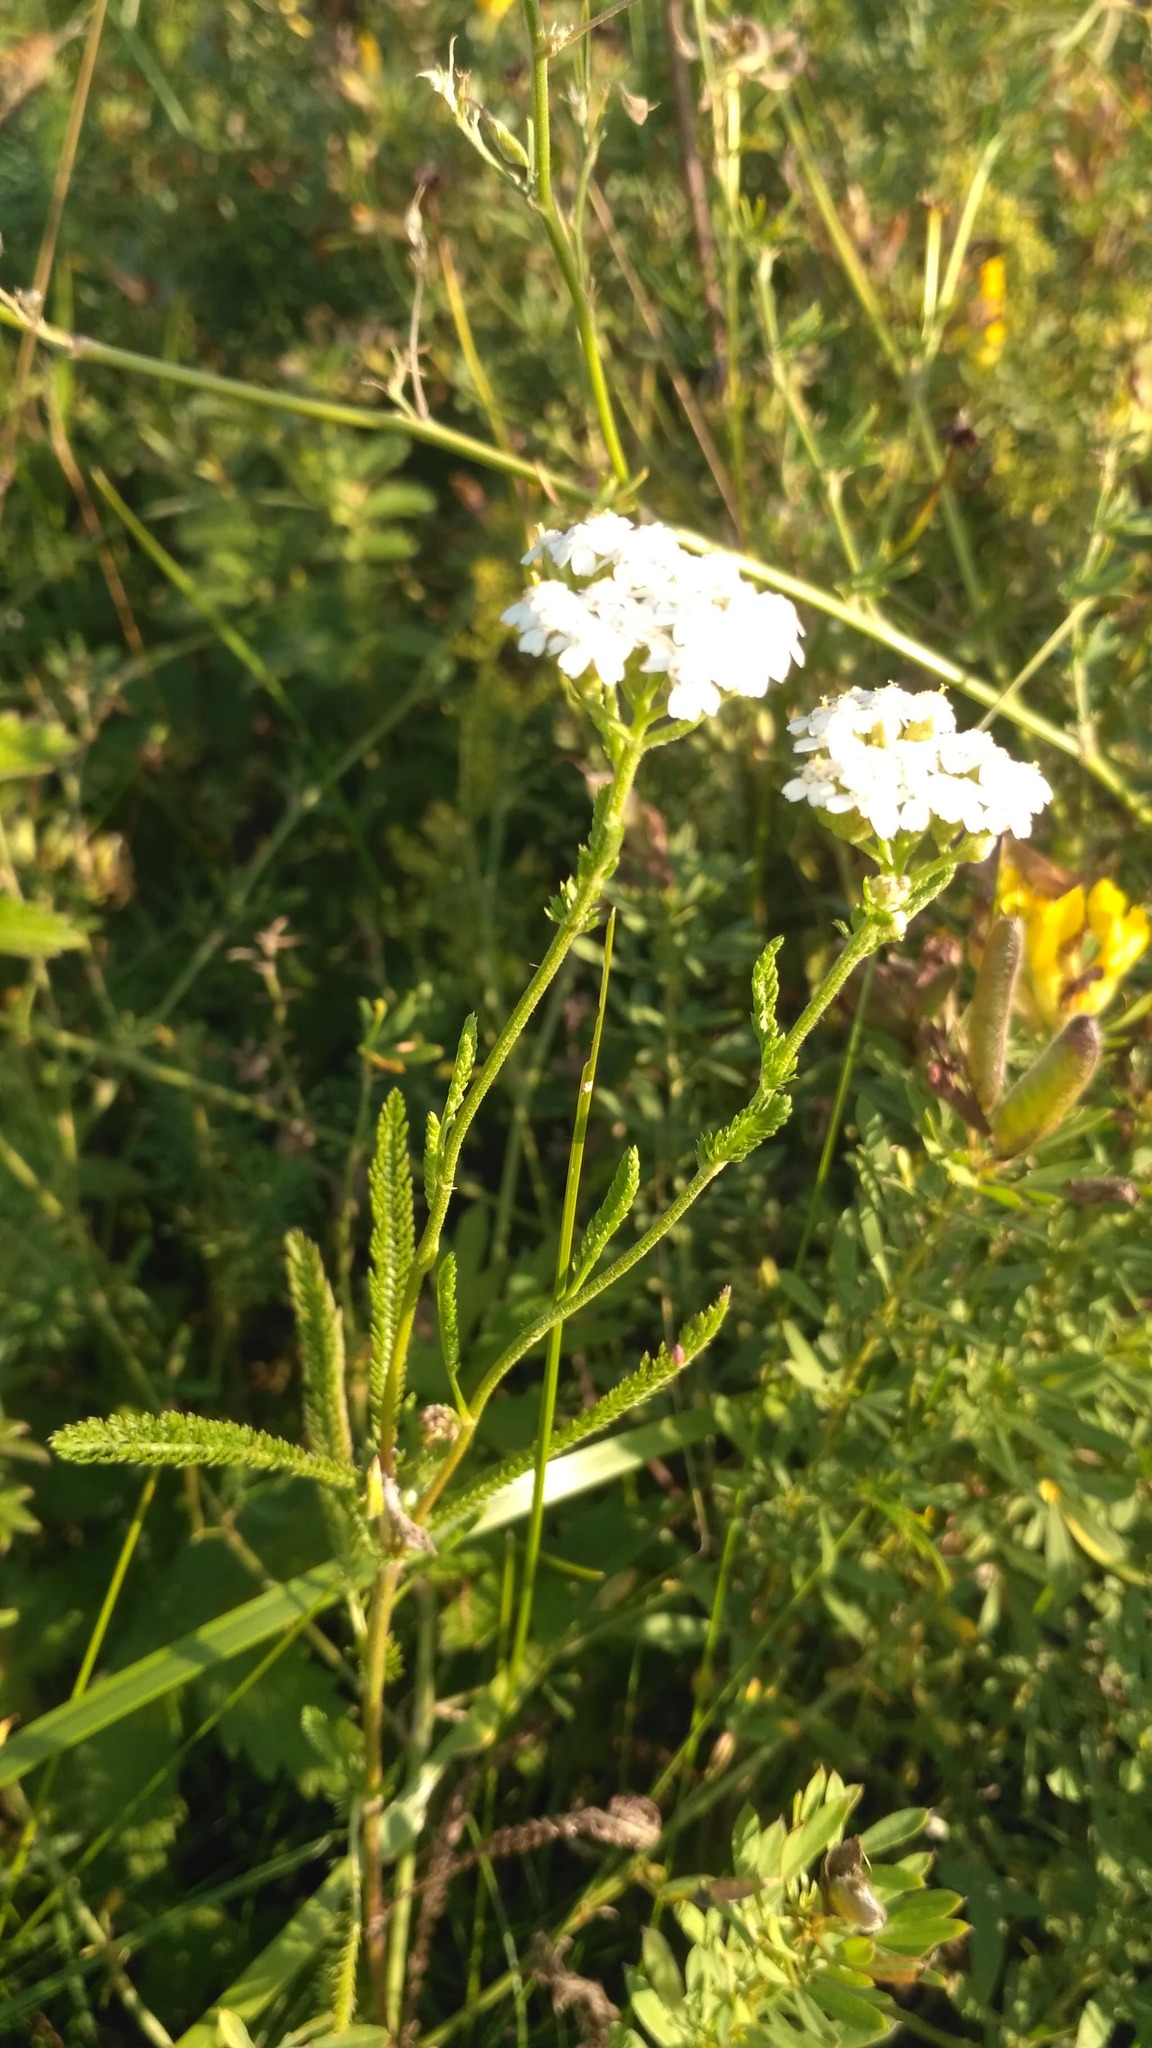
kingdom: Plantae
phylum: Tracheophyta
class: Magnoliopsida
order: Asterales
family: Asteraceae
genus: Achillea
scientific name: Achillea setacea
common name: Bristly yarrow
